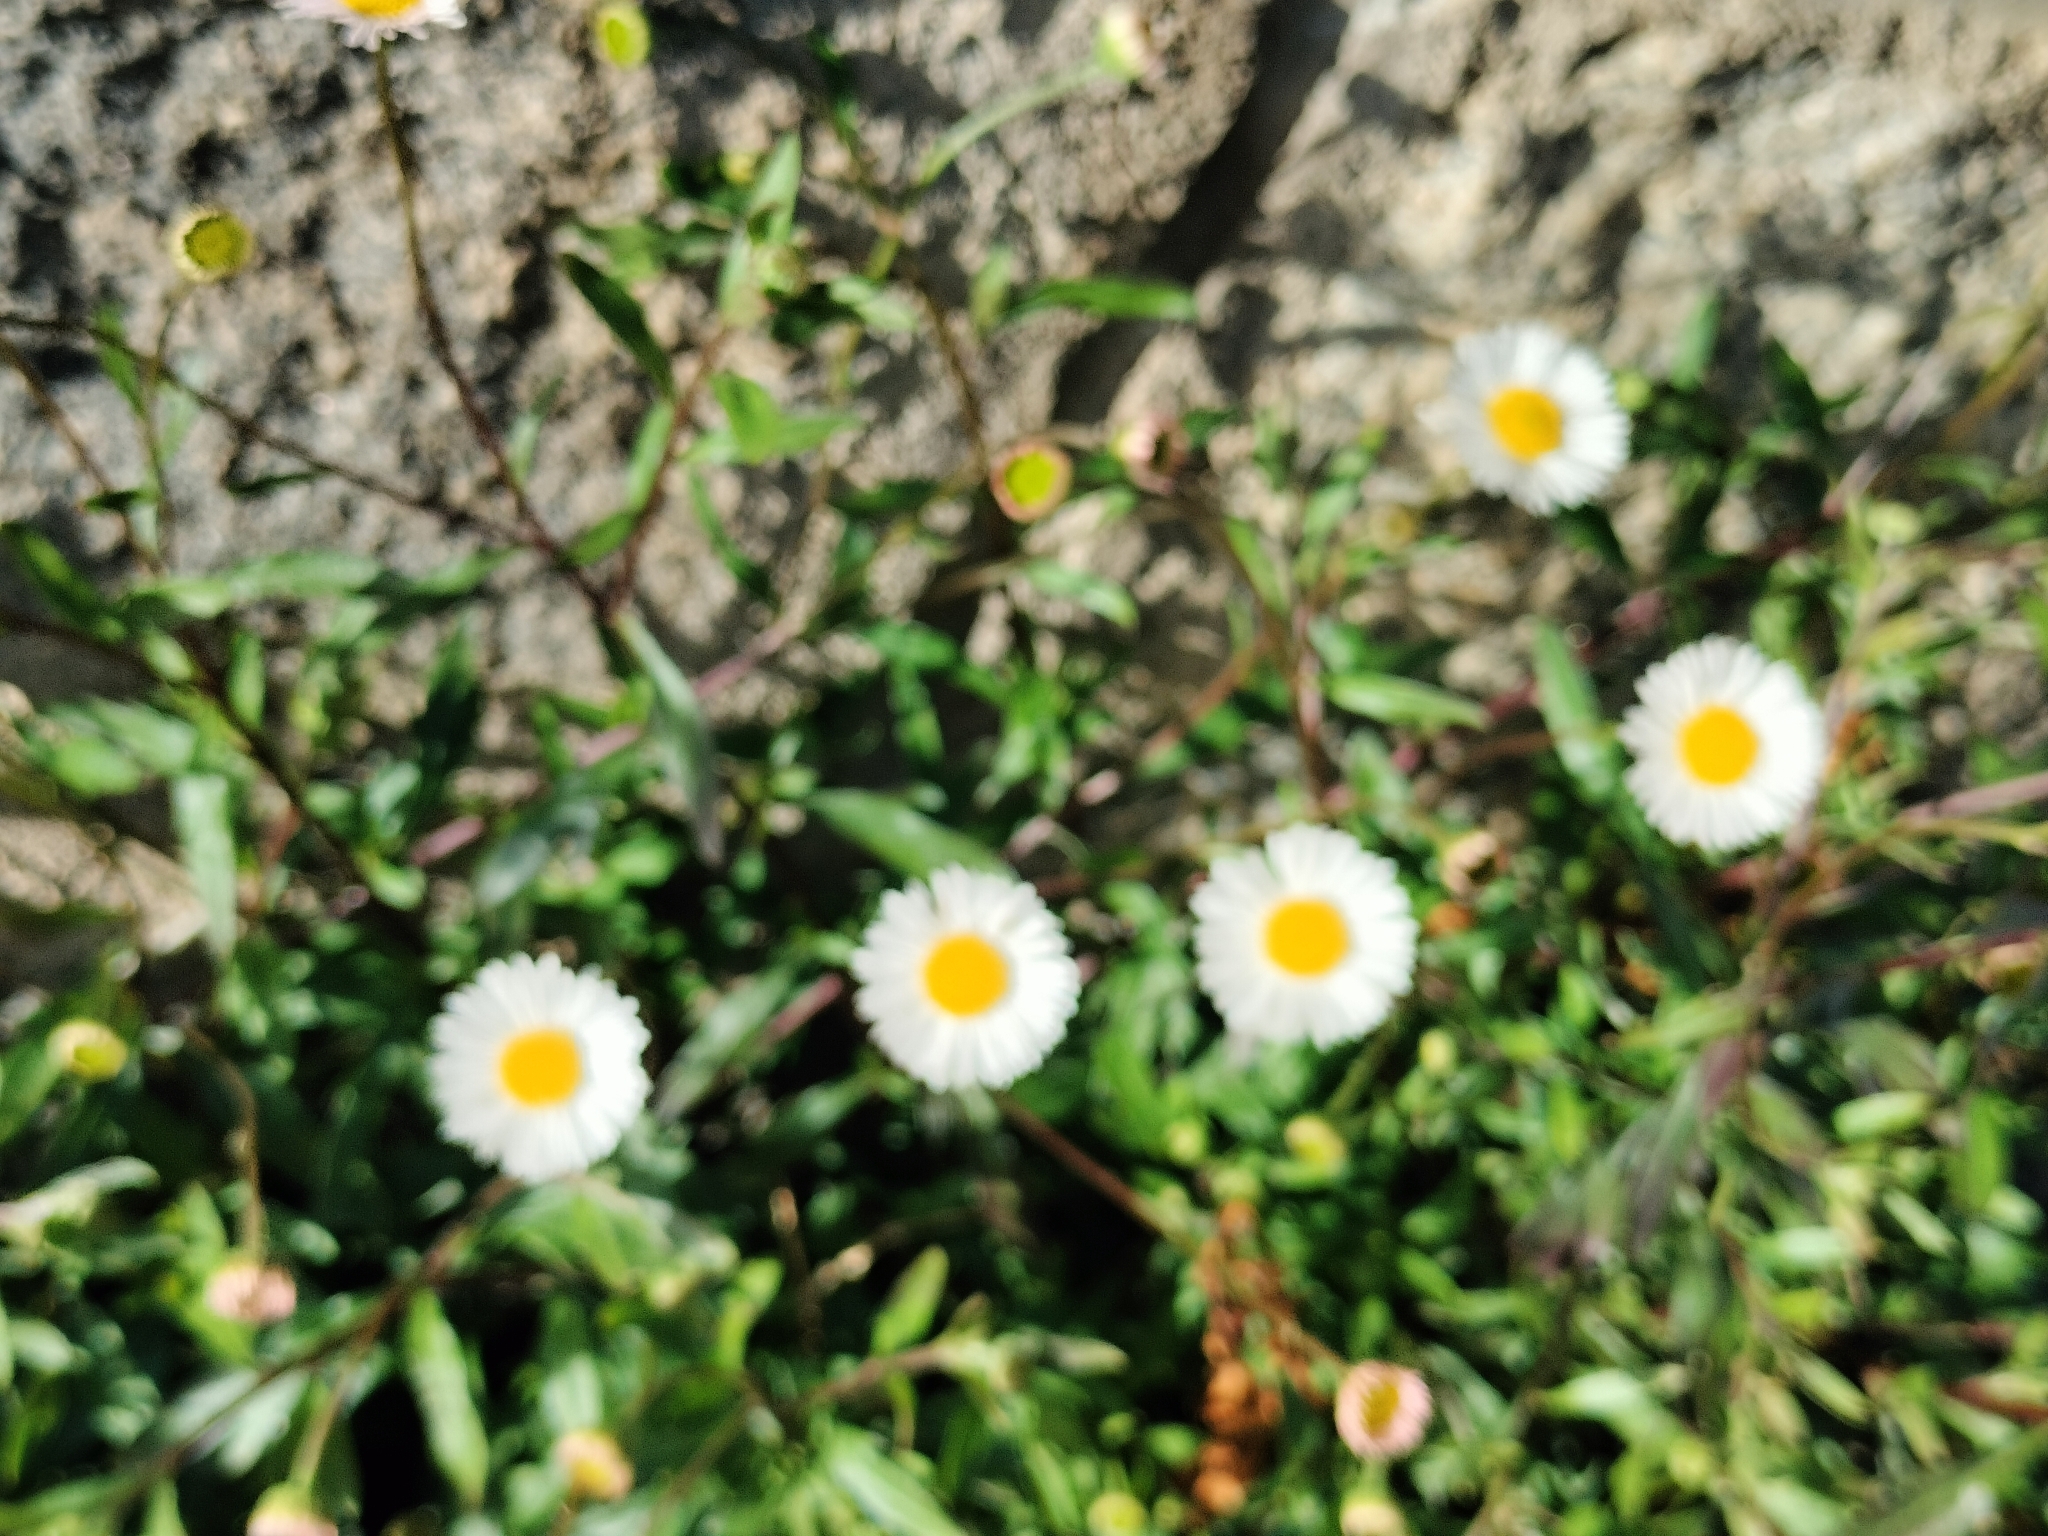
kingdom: Plantae
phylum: Tracheophyta
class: Magnoliopsida
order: Asterales
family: Asteraceae
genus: Erigeron
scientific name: Erigeron karvinskianus
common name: Mexican fleabane
